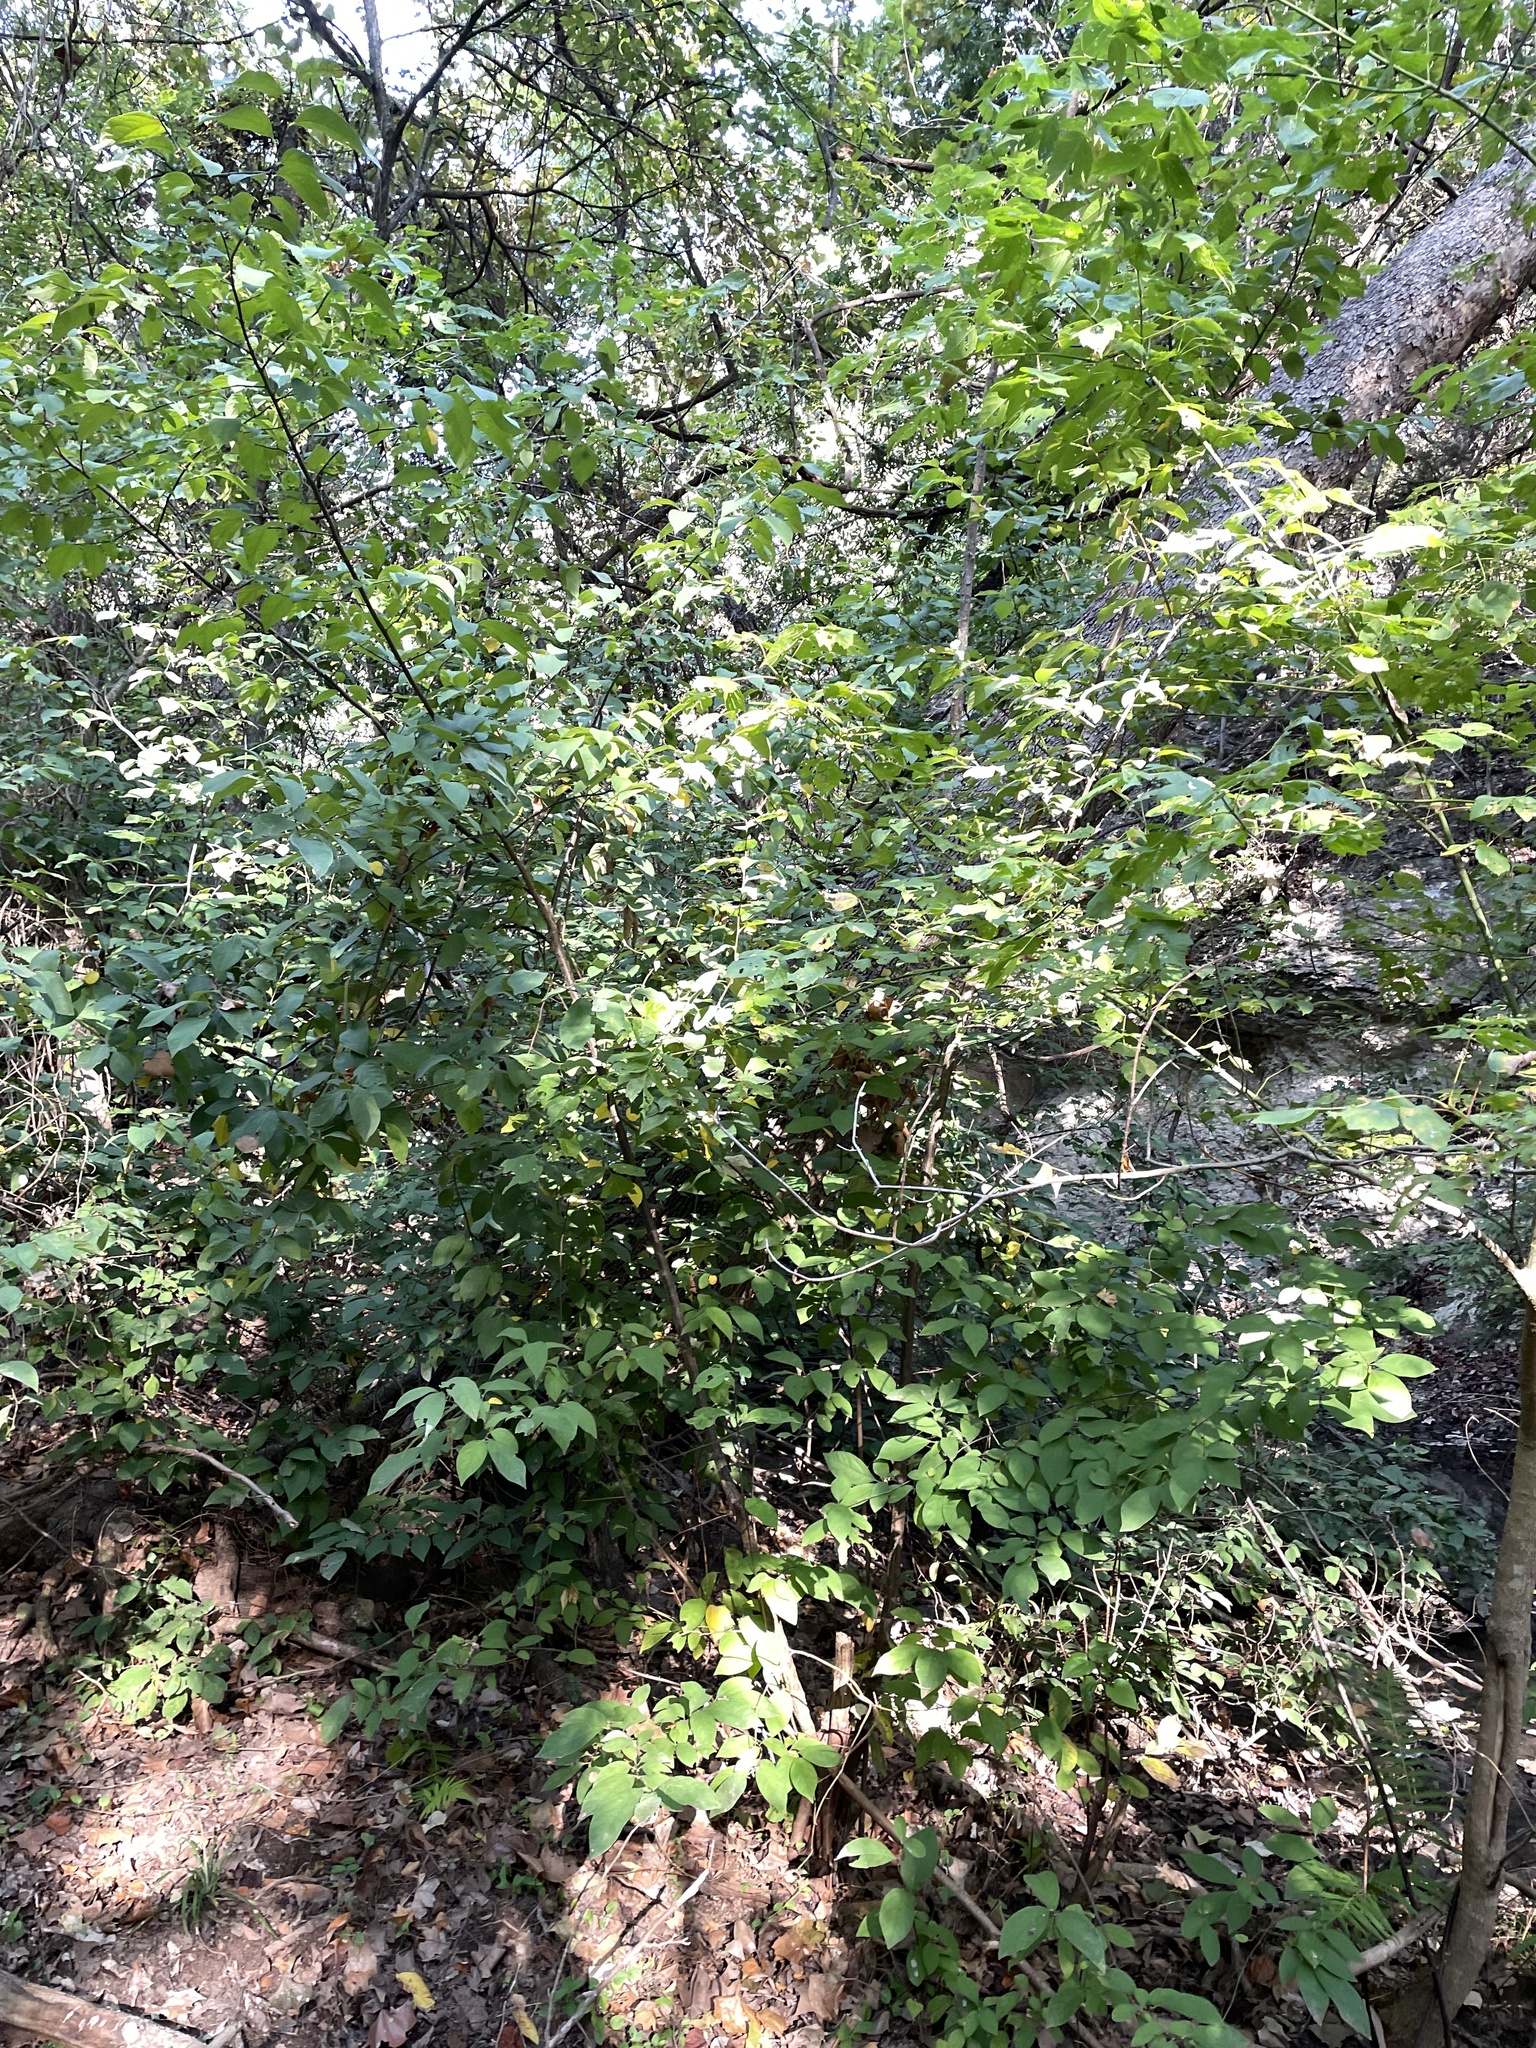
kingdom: Plantae
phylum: Tracheophyta
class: Magnoliopsida
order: Laurales
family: Lauraceae
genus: Lindera
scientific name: Lindera benzoin
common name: Spicebush
